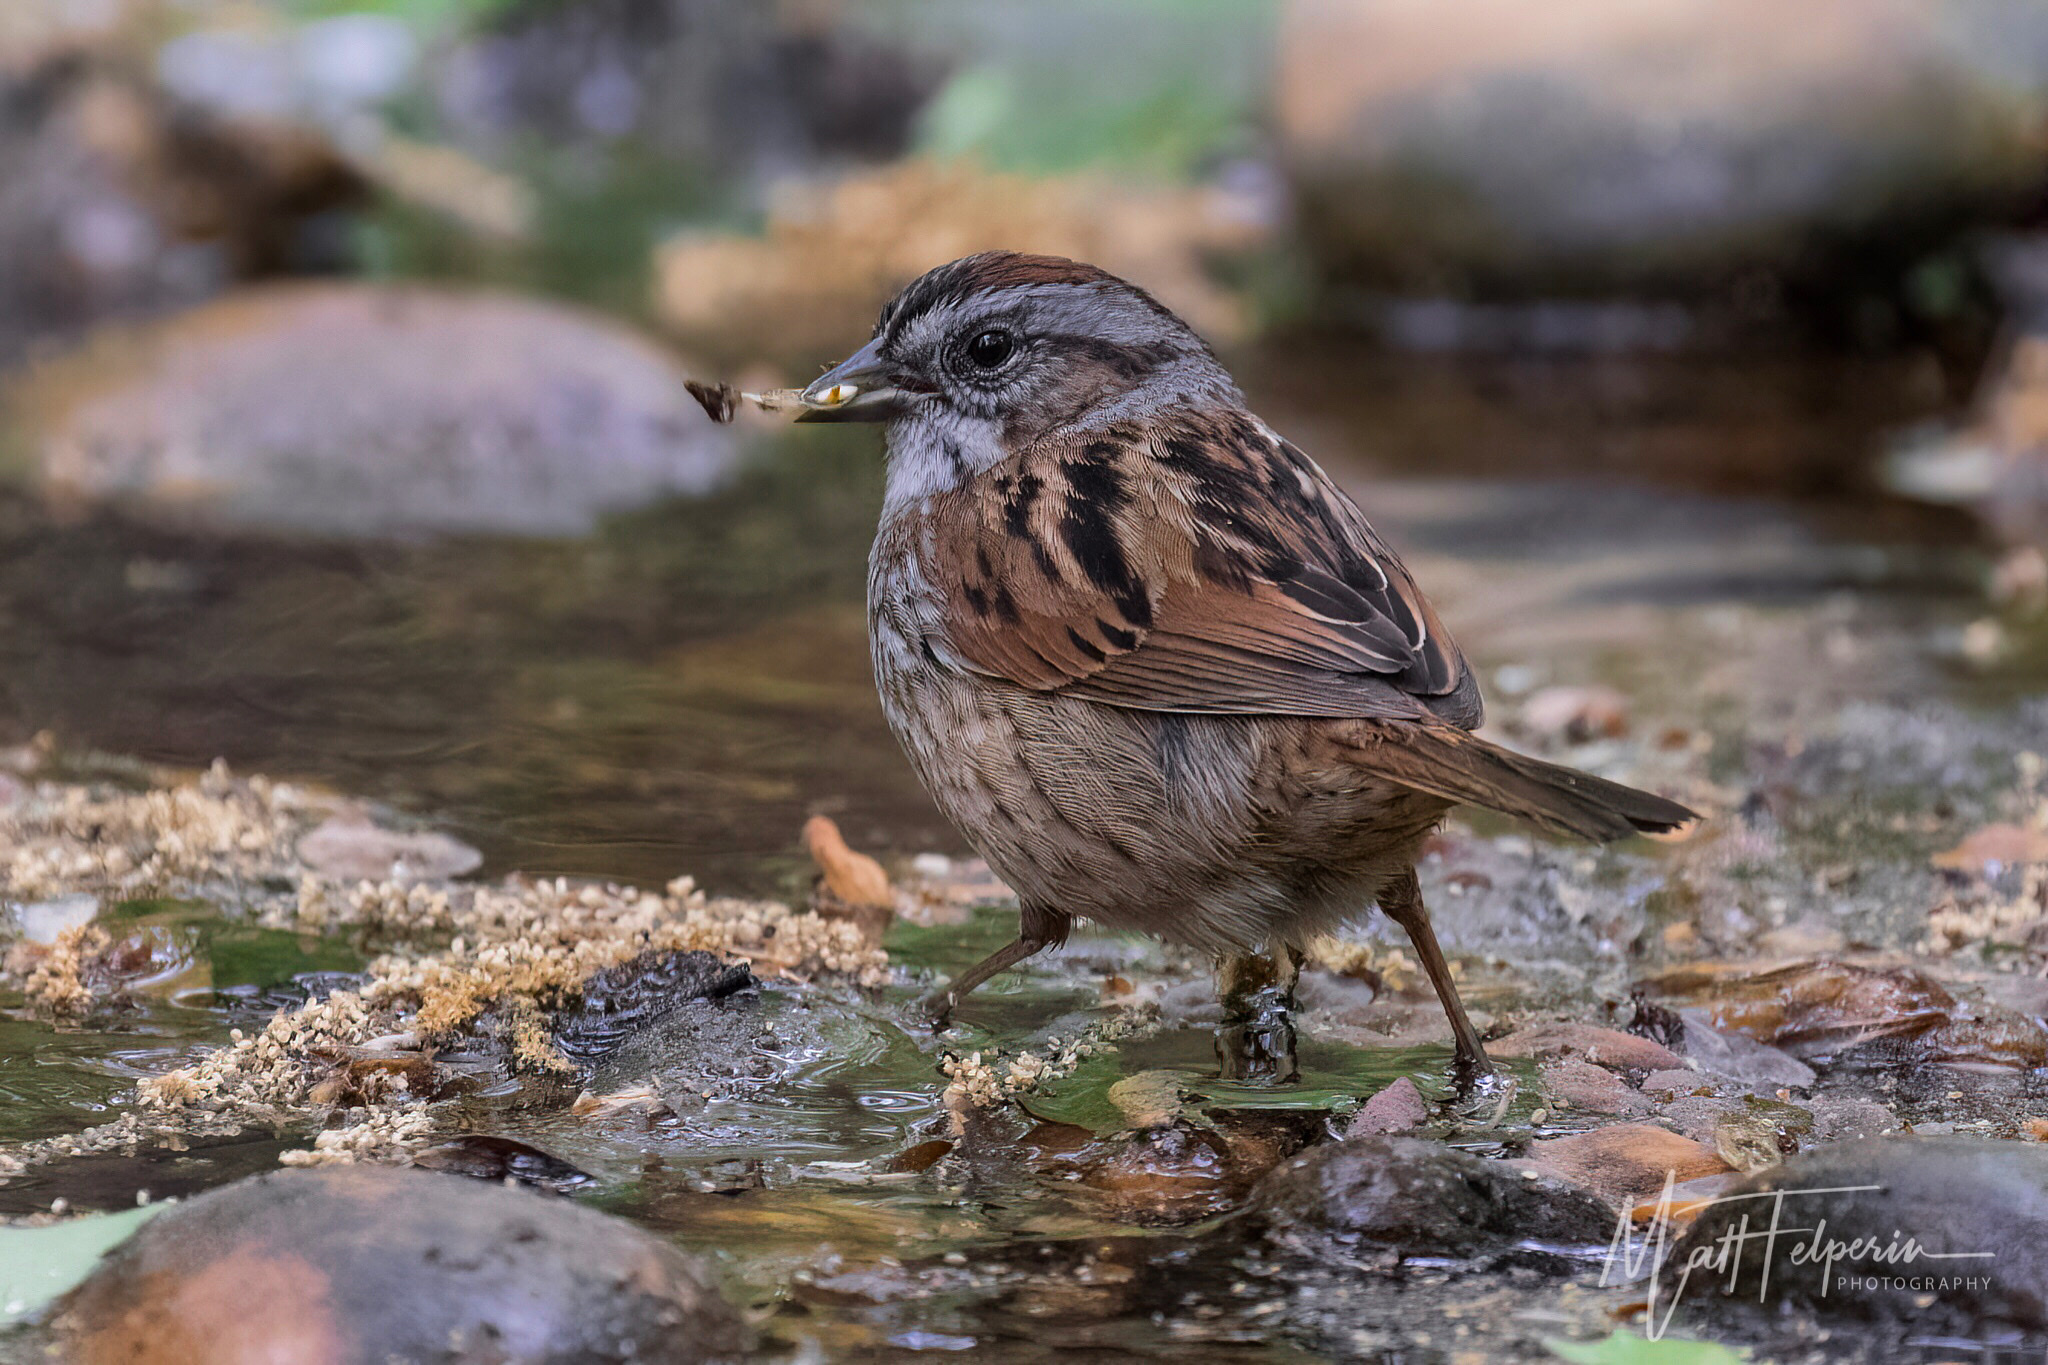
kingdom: Animalia
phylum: Chordata
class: Aves
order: Passeriformes
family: Passerellidae
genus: Melospiza
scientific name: Melospiza georgiana
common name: Swamp sparrow
